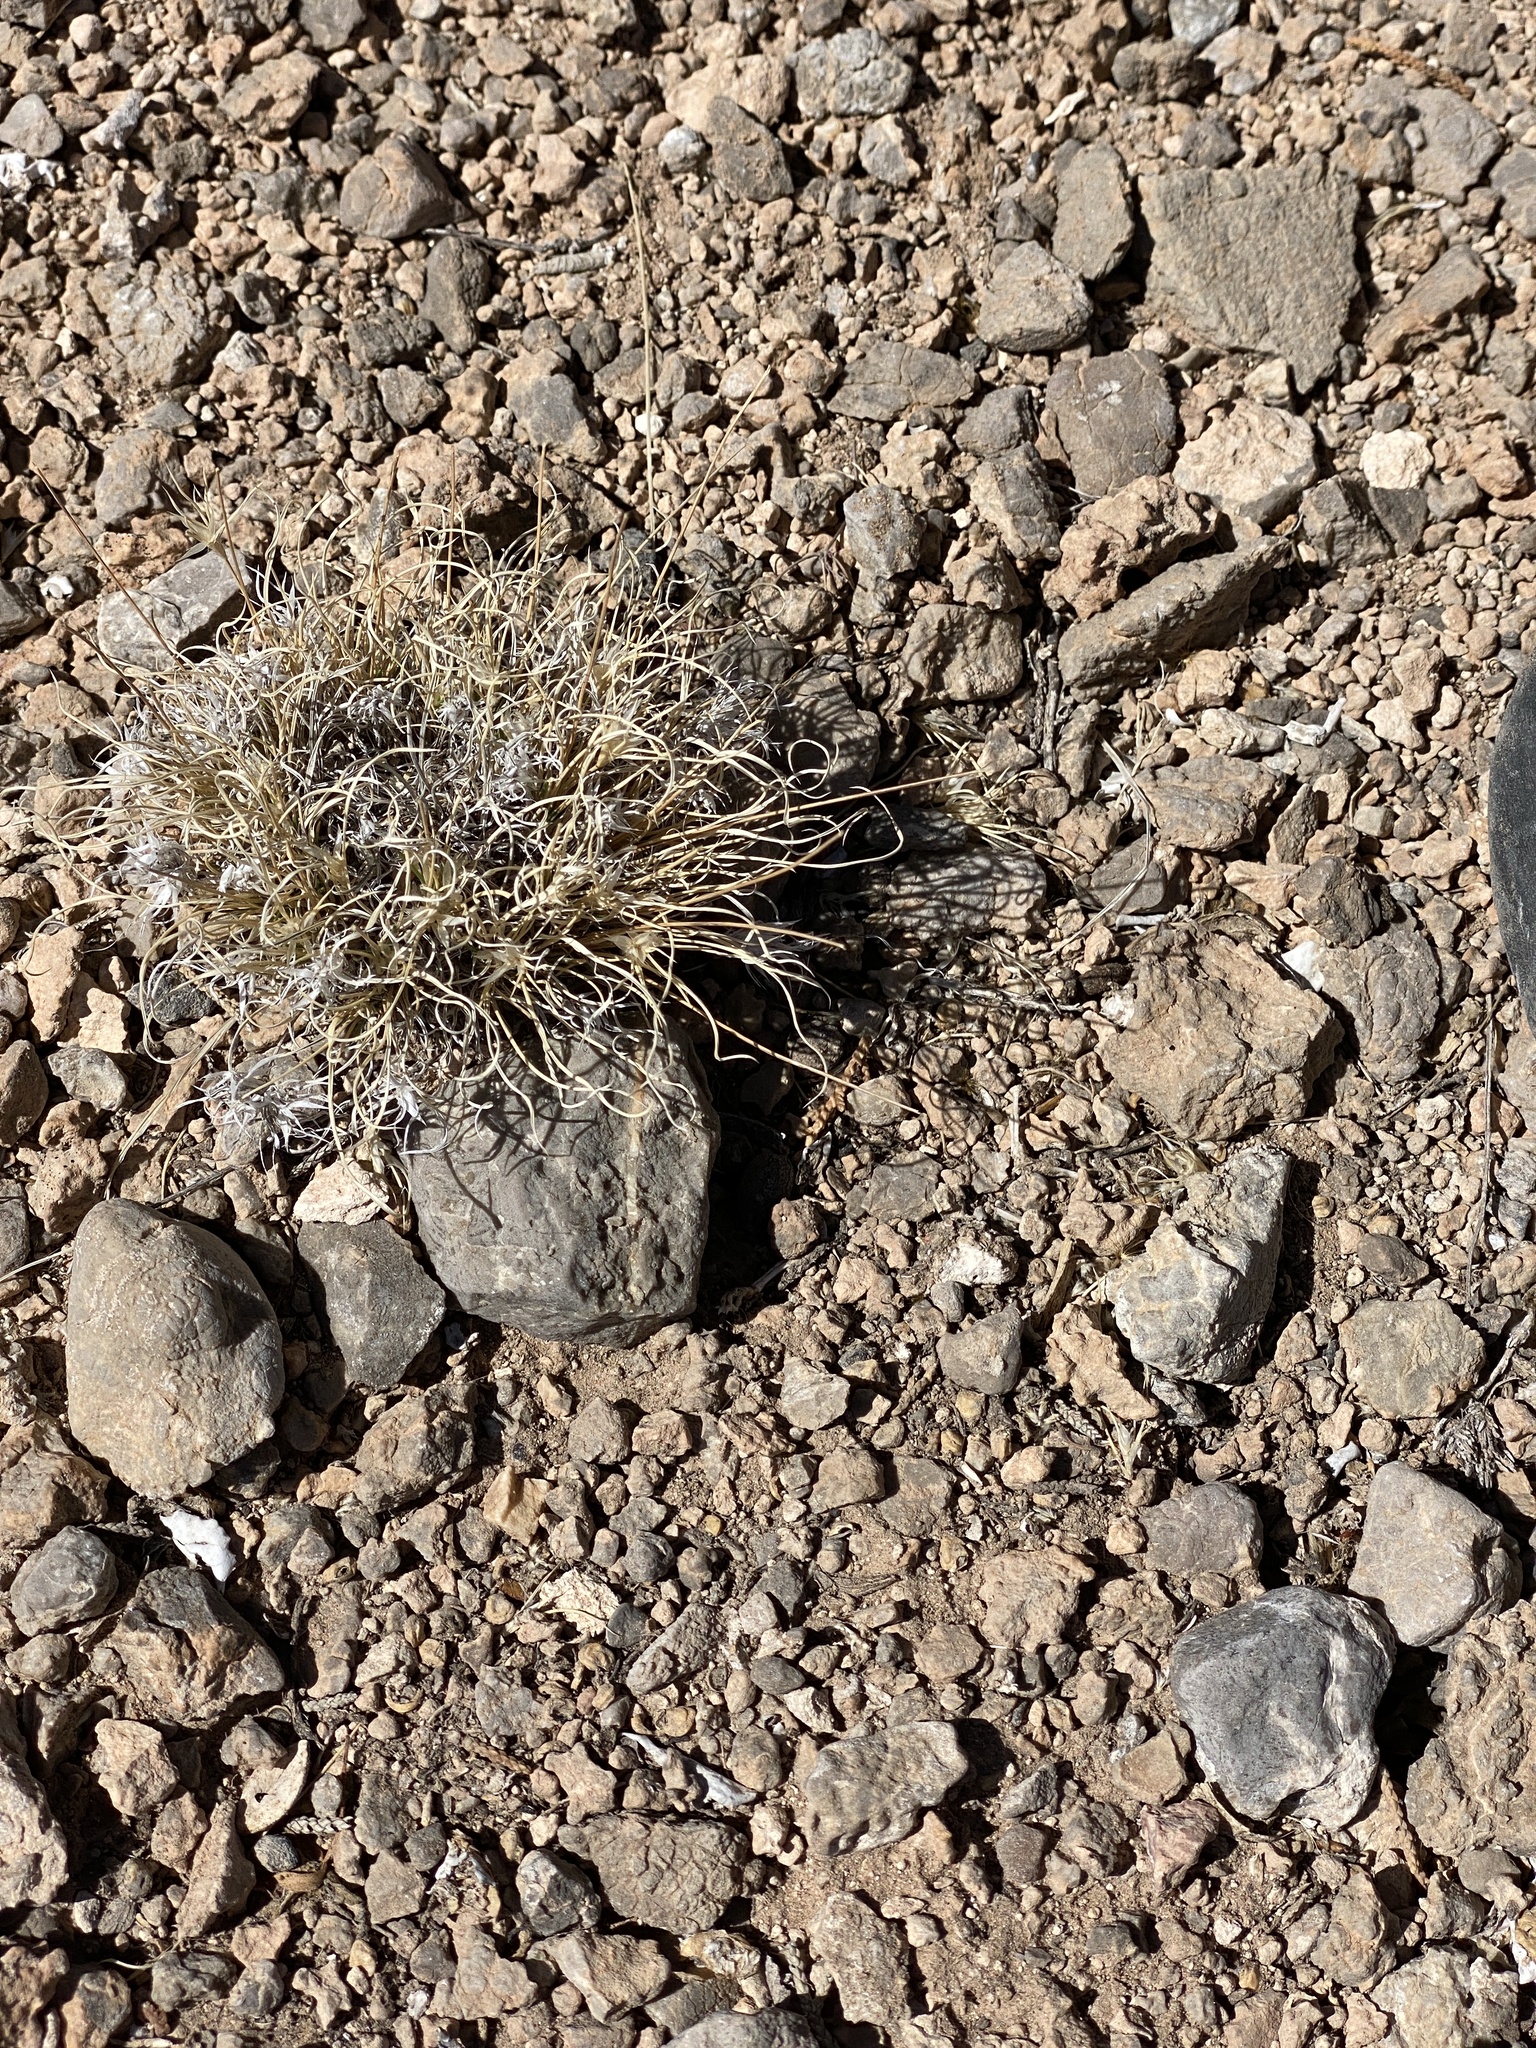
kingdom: Plantae
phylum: Tracheophyta
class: Liliopsida
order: Poales
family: Poaceae
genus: Dasyochloa
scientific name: Dasyochloa pulchella
